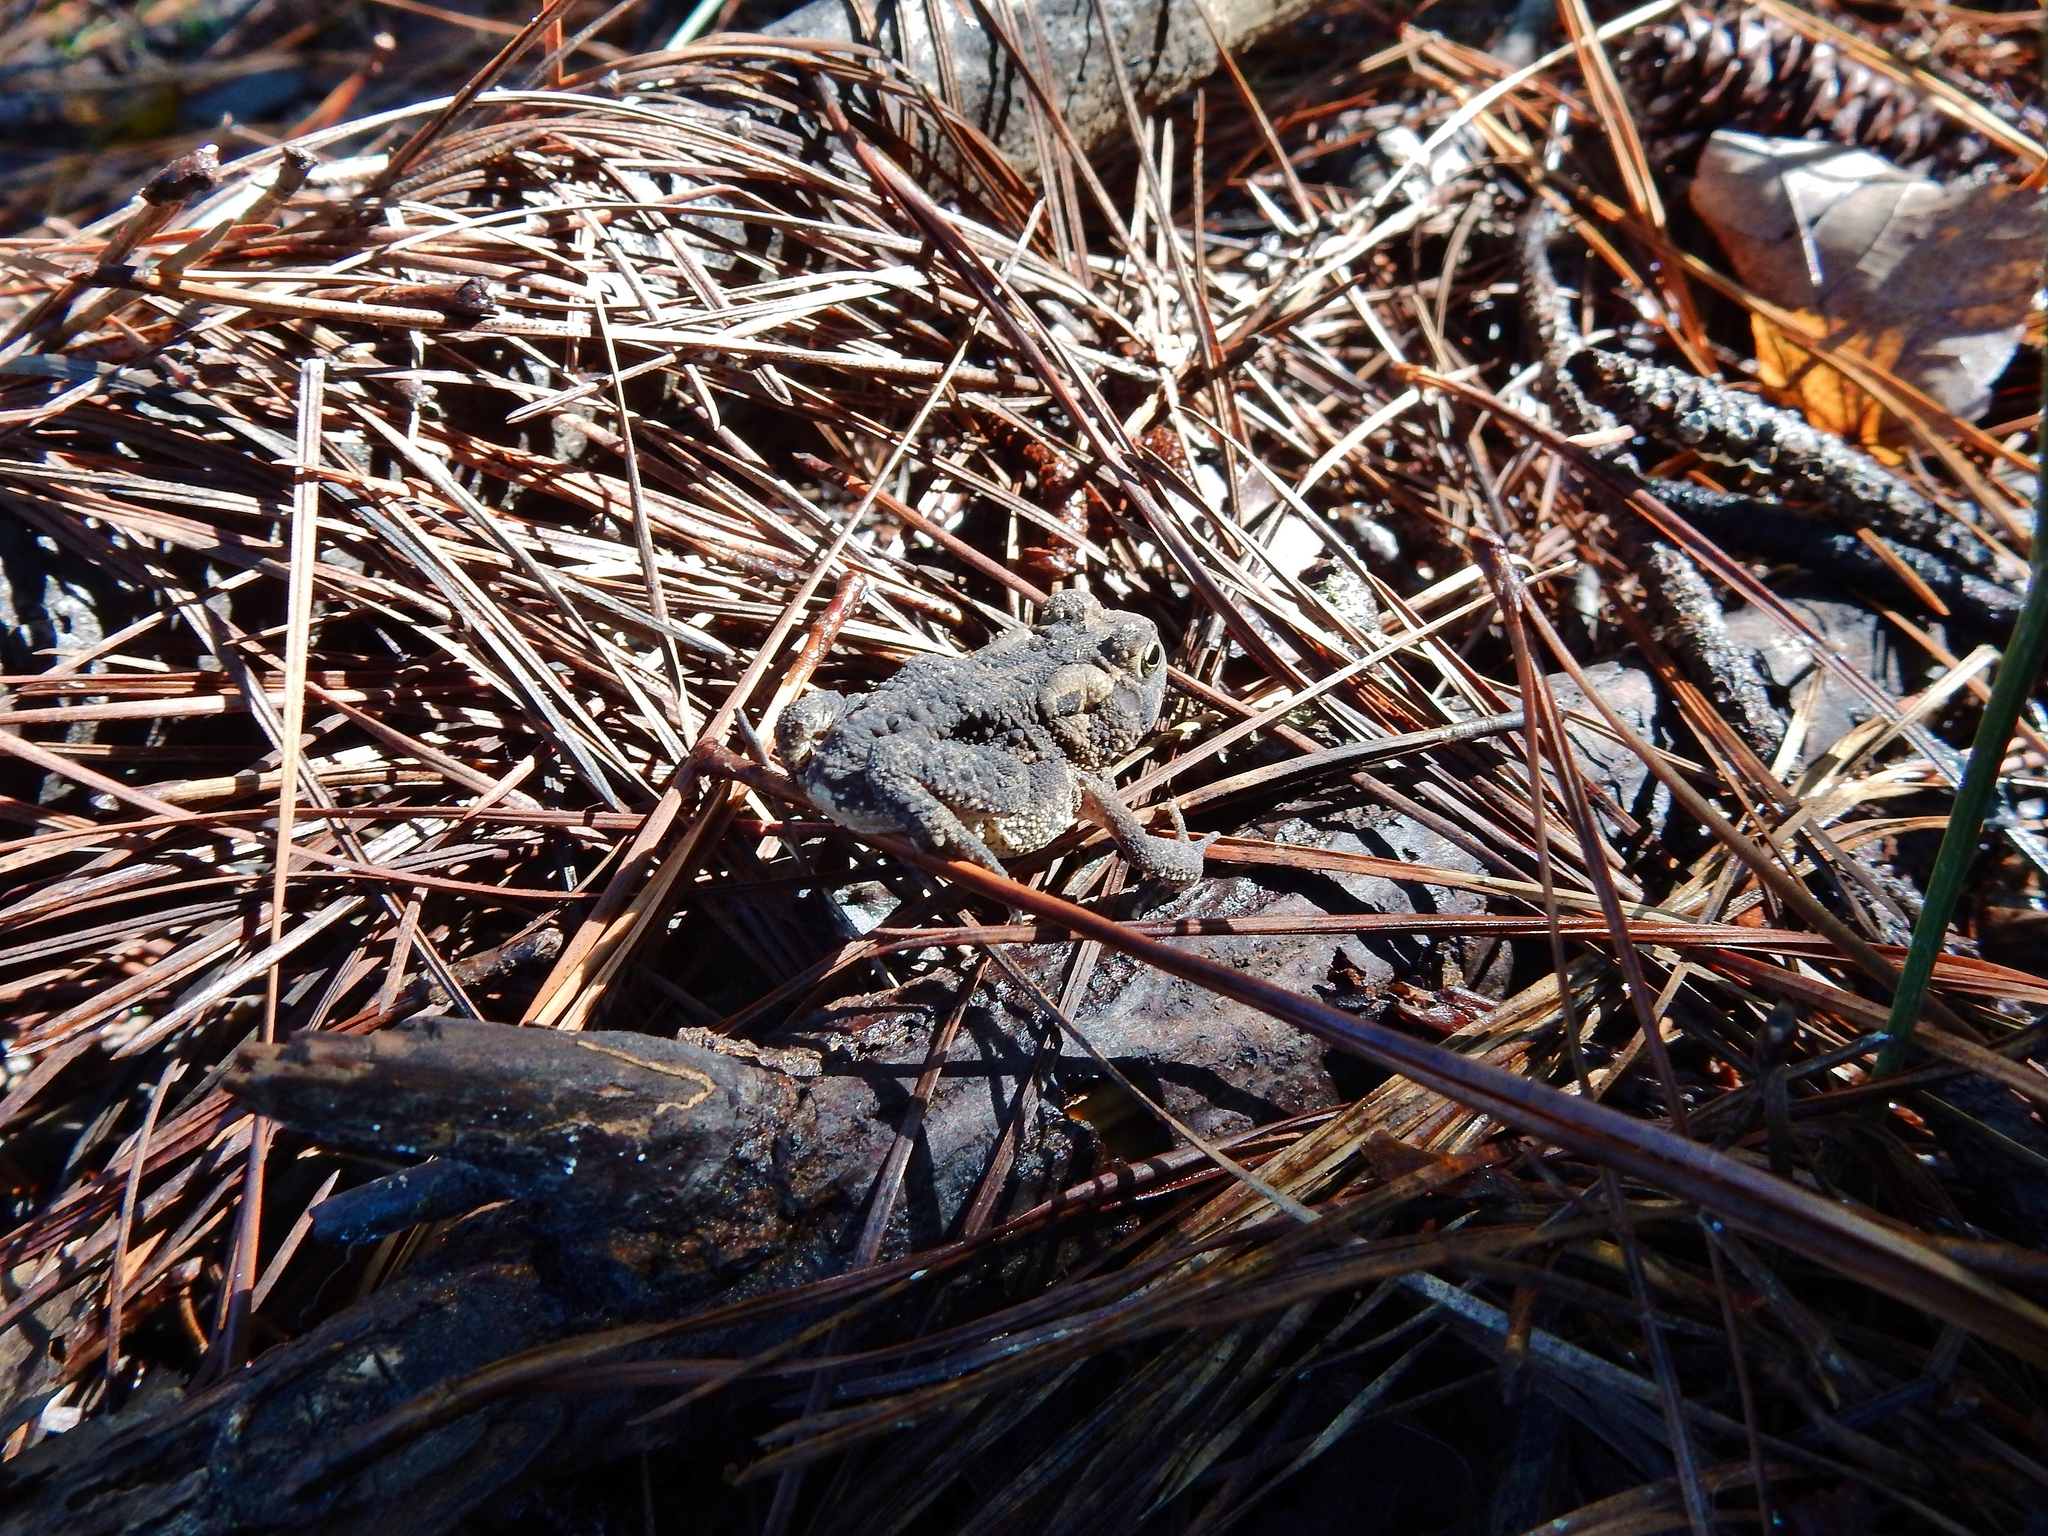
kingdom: Animalia
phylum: Chordata
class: Amphibia
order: Anura
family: Bufonidae
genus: Anaxyrus
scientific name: Anaxyrus americanus
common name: American toad
